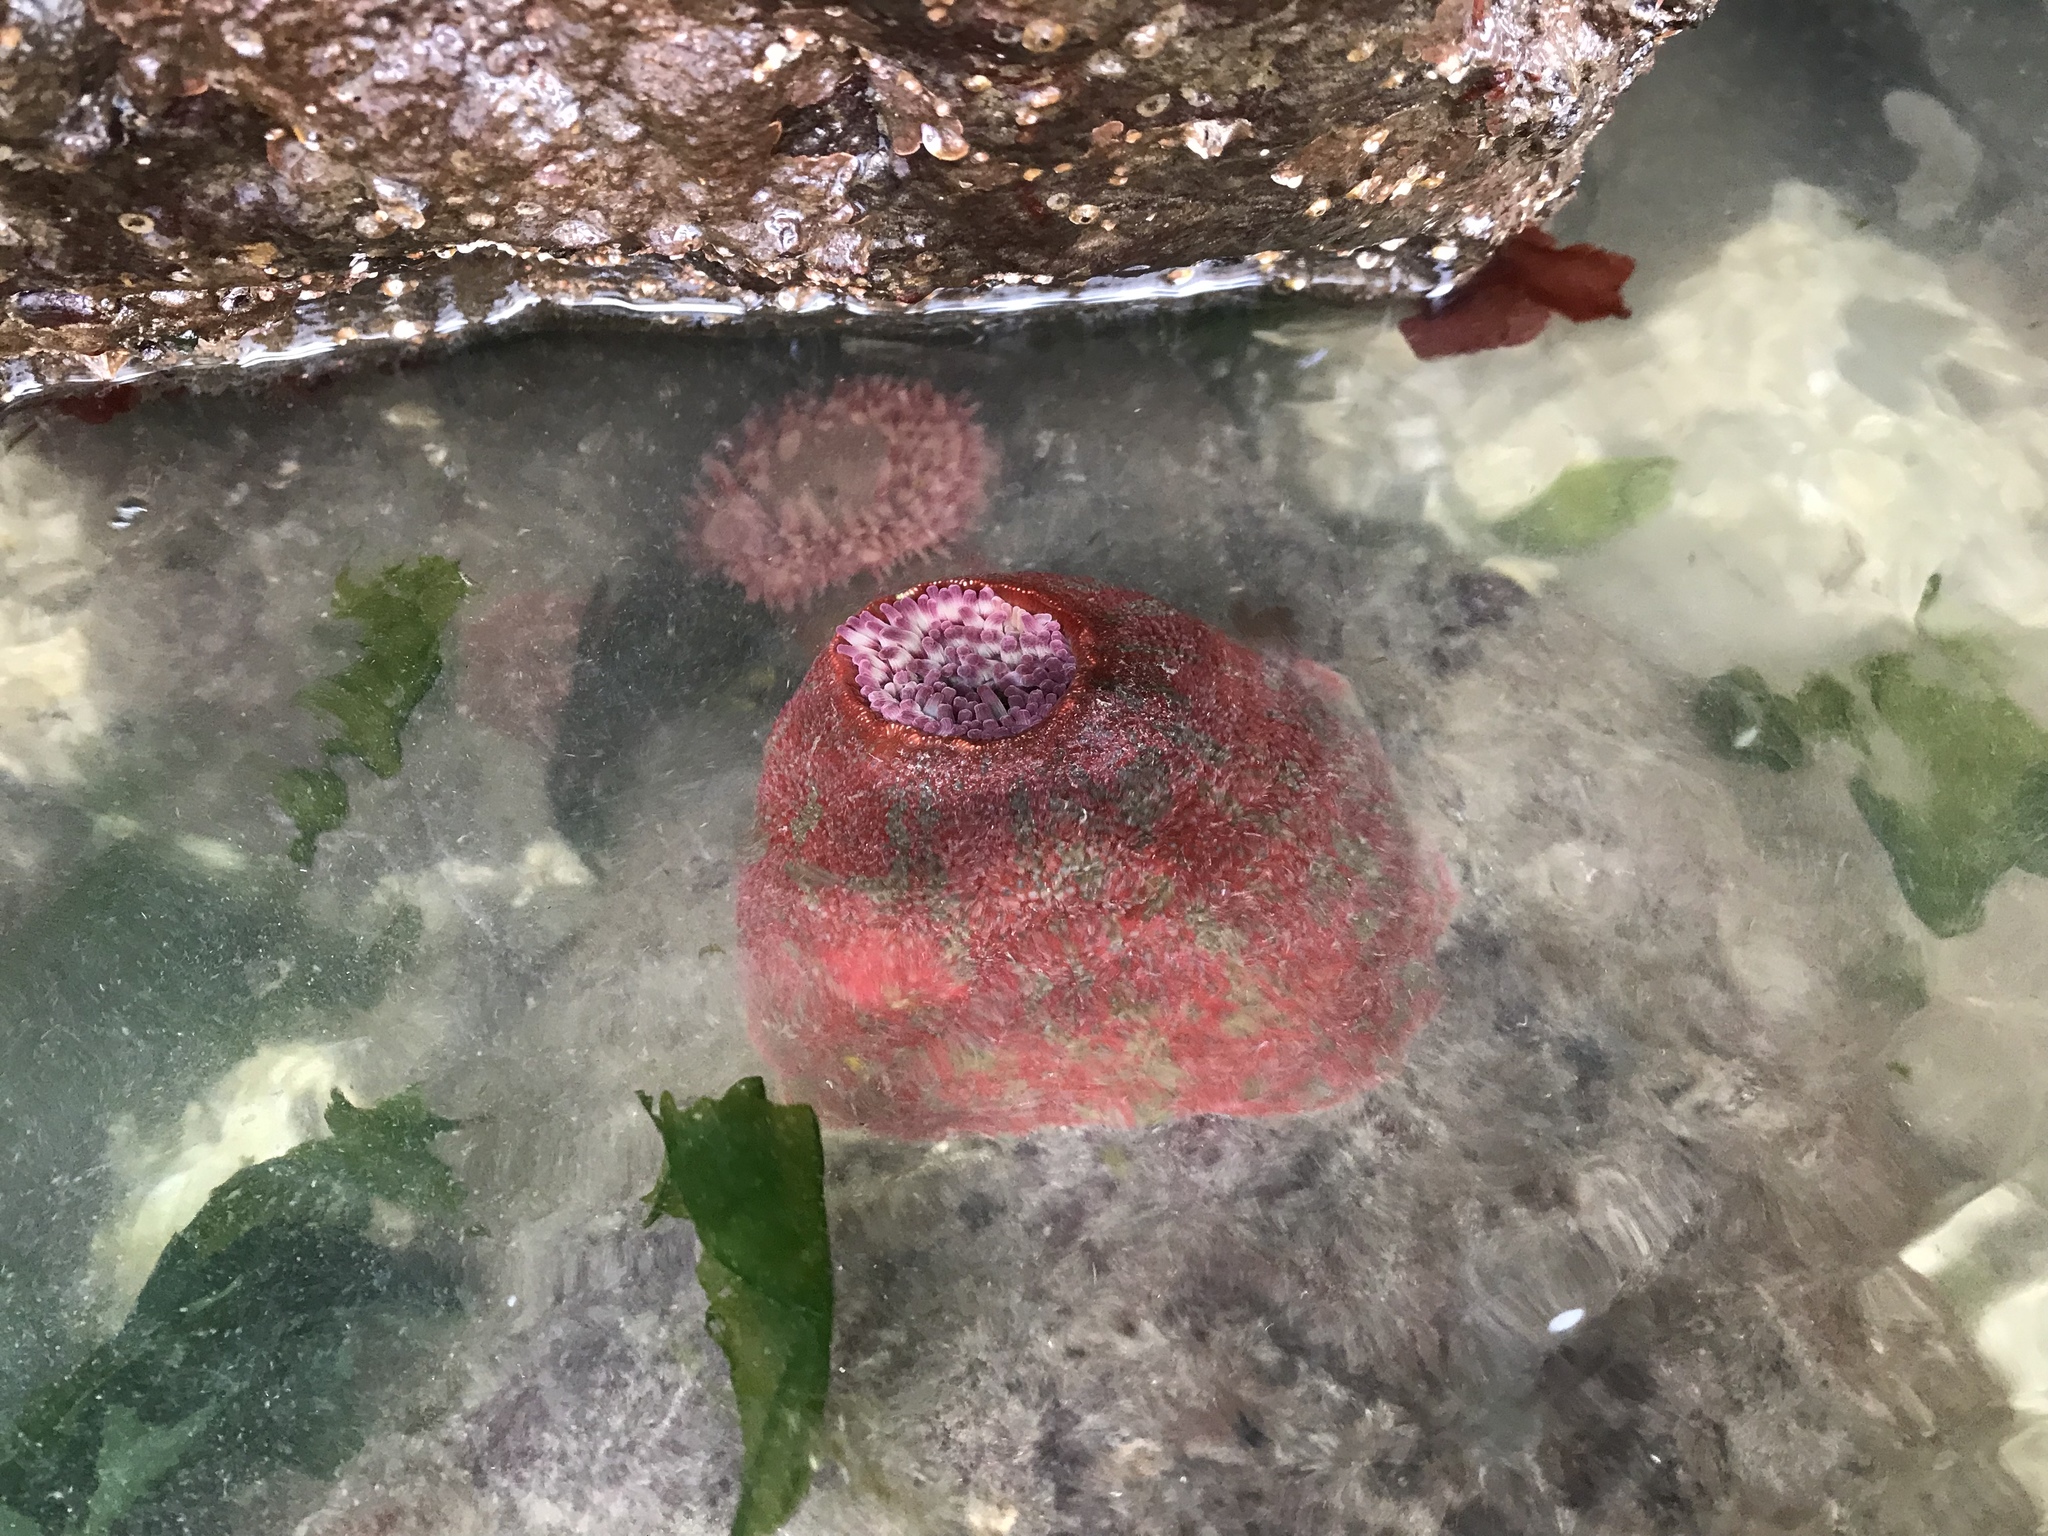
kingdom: Animalia
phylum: Cnidaria
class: Anthozoa
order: Actiniaria
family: Actiniidae
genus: Urticina
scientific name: Urticina grebelnyi
